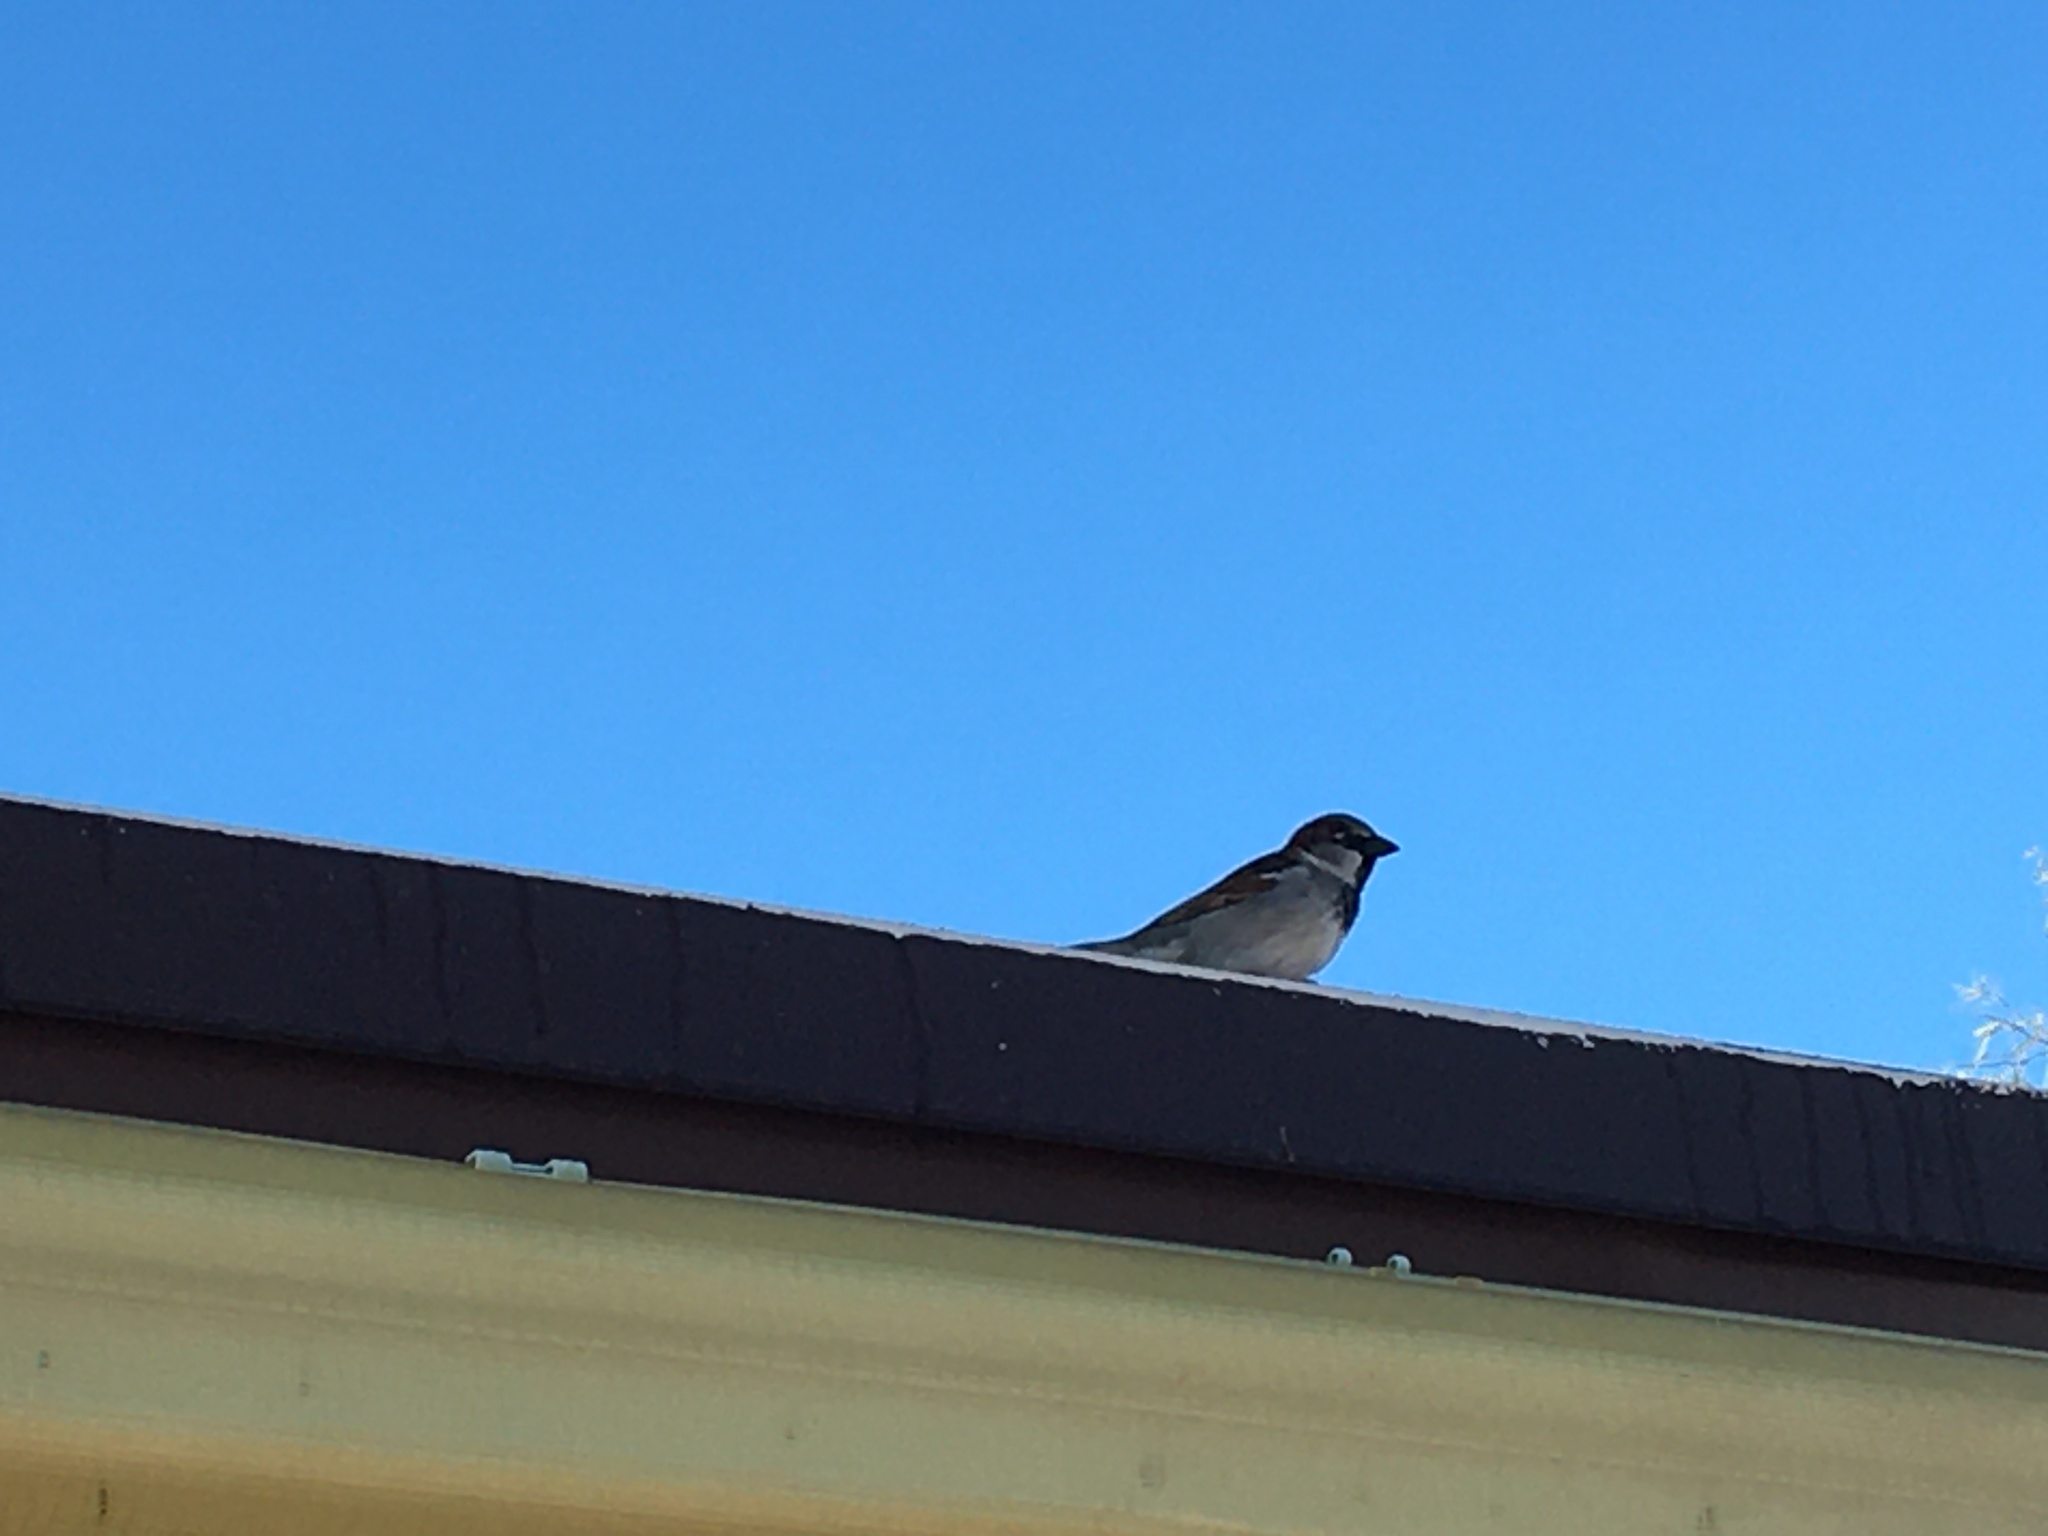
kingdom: Animalia
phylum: Chordata
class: Aves
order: Passeriformes
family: Passeridae
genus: Passer
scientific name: Passer domesticus
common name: House sparrow
